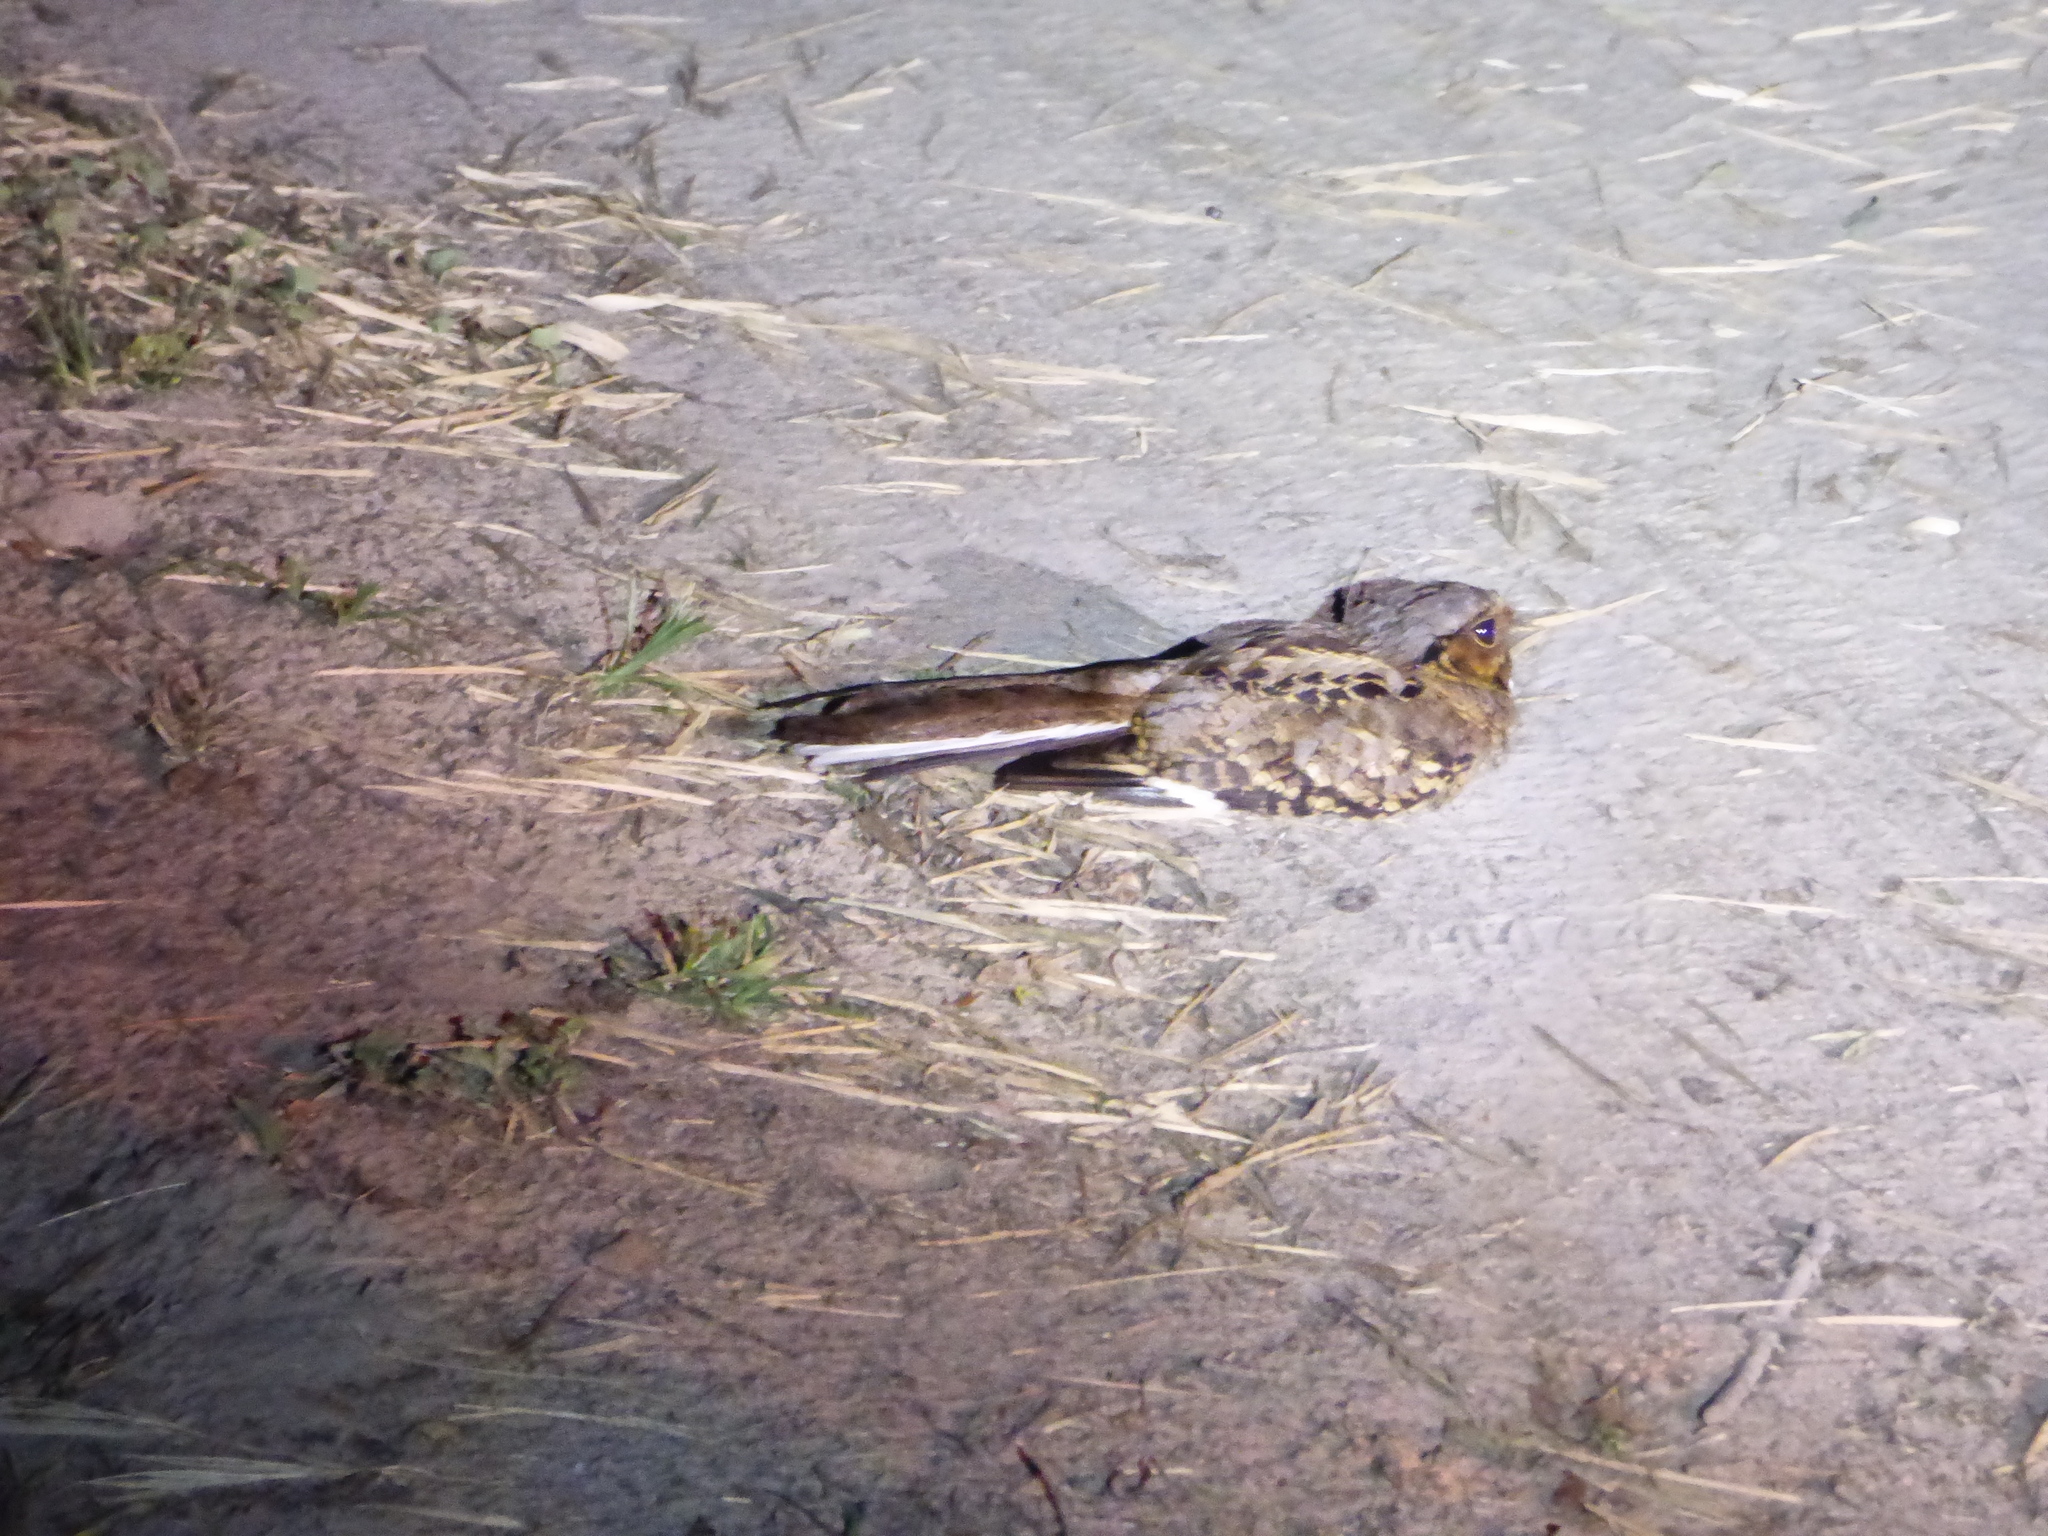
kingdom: Animalia
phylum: Chordata
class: Aves
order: Caprimulgiformes
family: Caprimulgidae
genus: Nyctidromus
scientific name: Nyctidromus albicollis
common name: Pauraque
